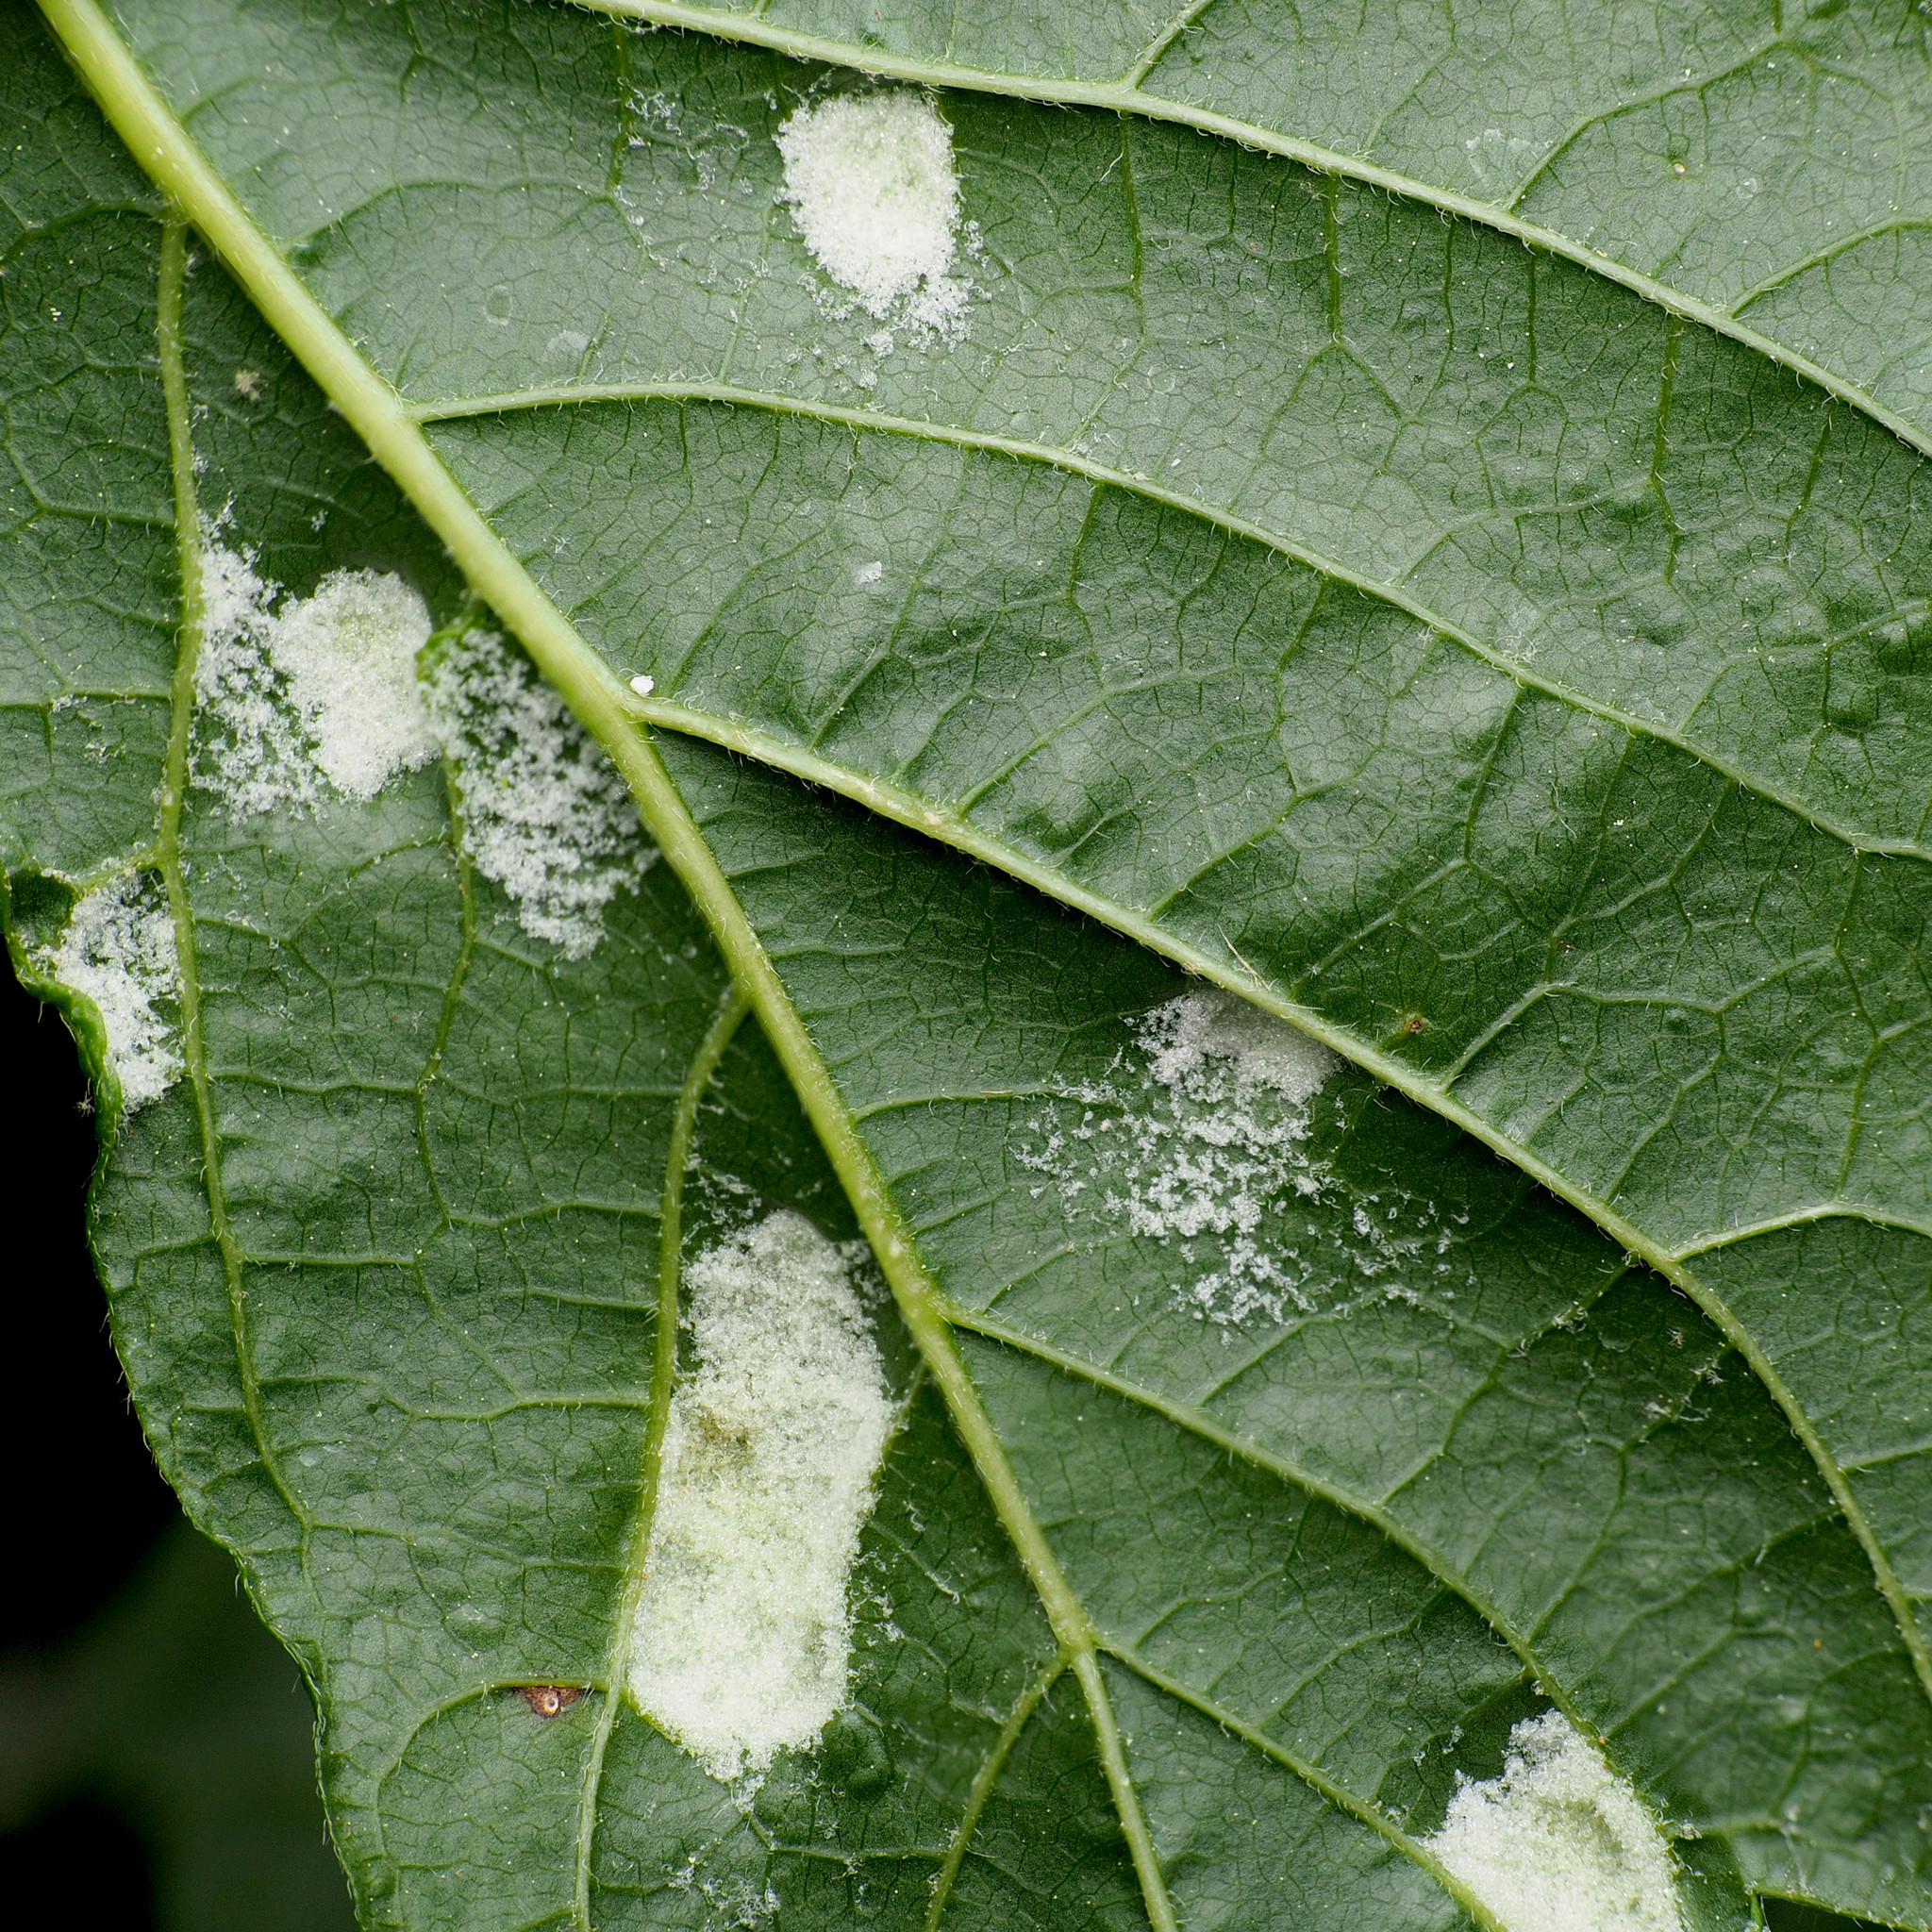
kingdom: Animalia
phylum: Arthropoda
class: Arachnida
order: Trombidiformes
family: Eriophyidae
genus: Aceria
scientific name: Aceria
